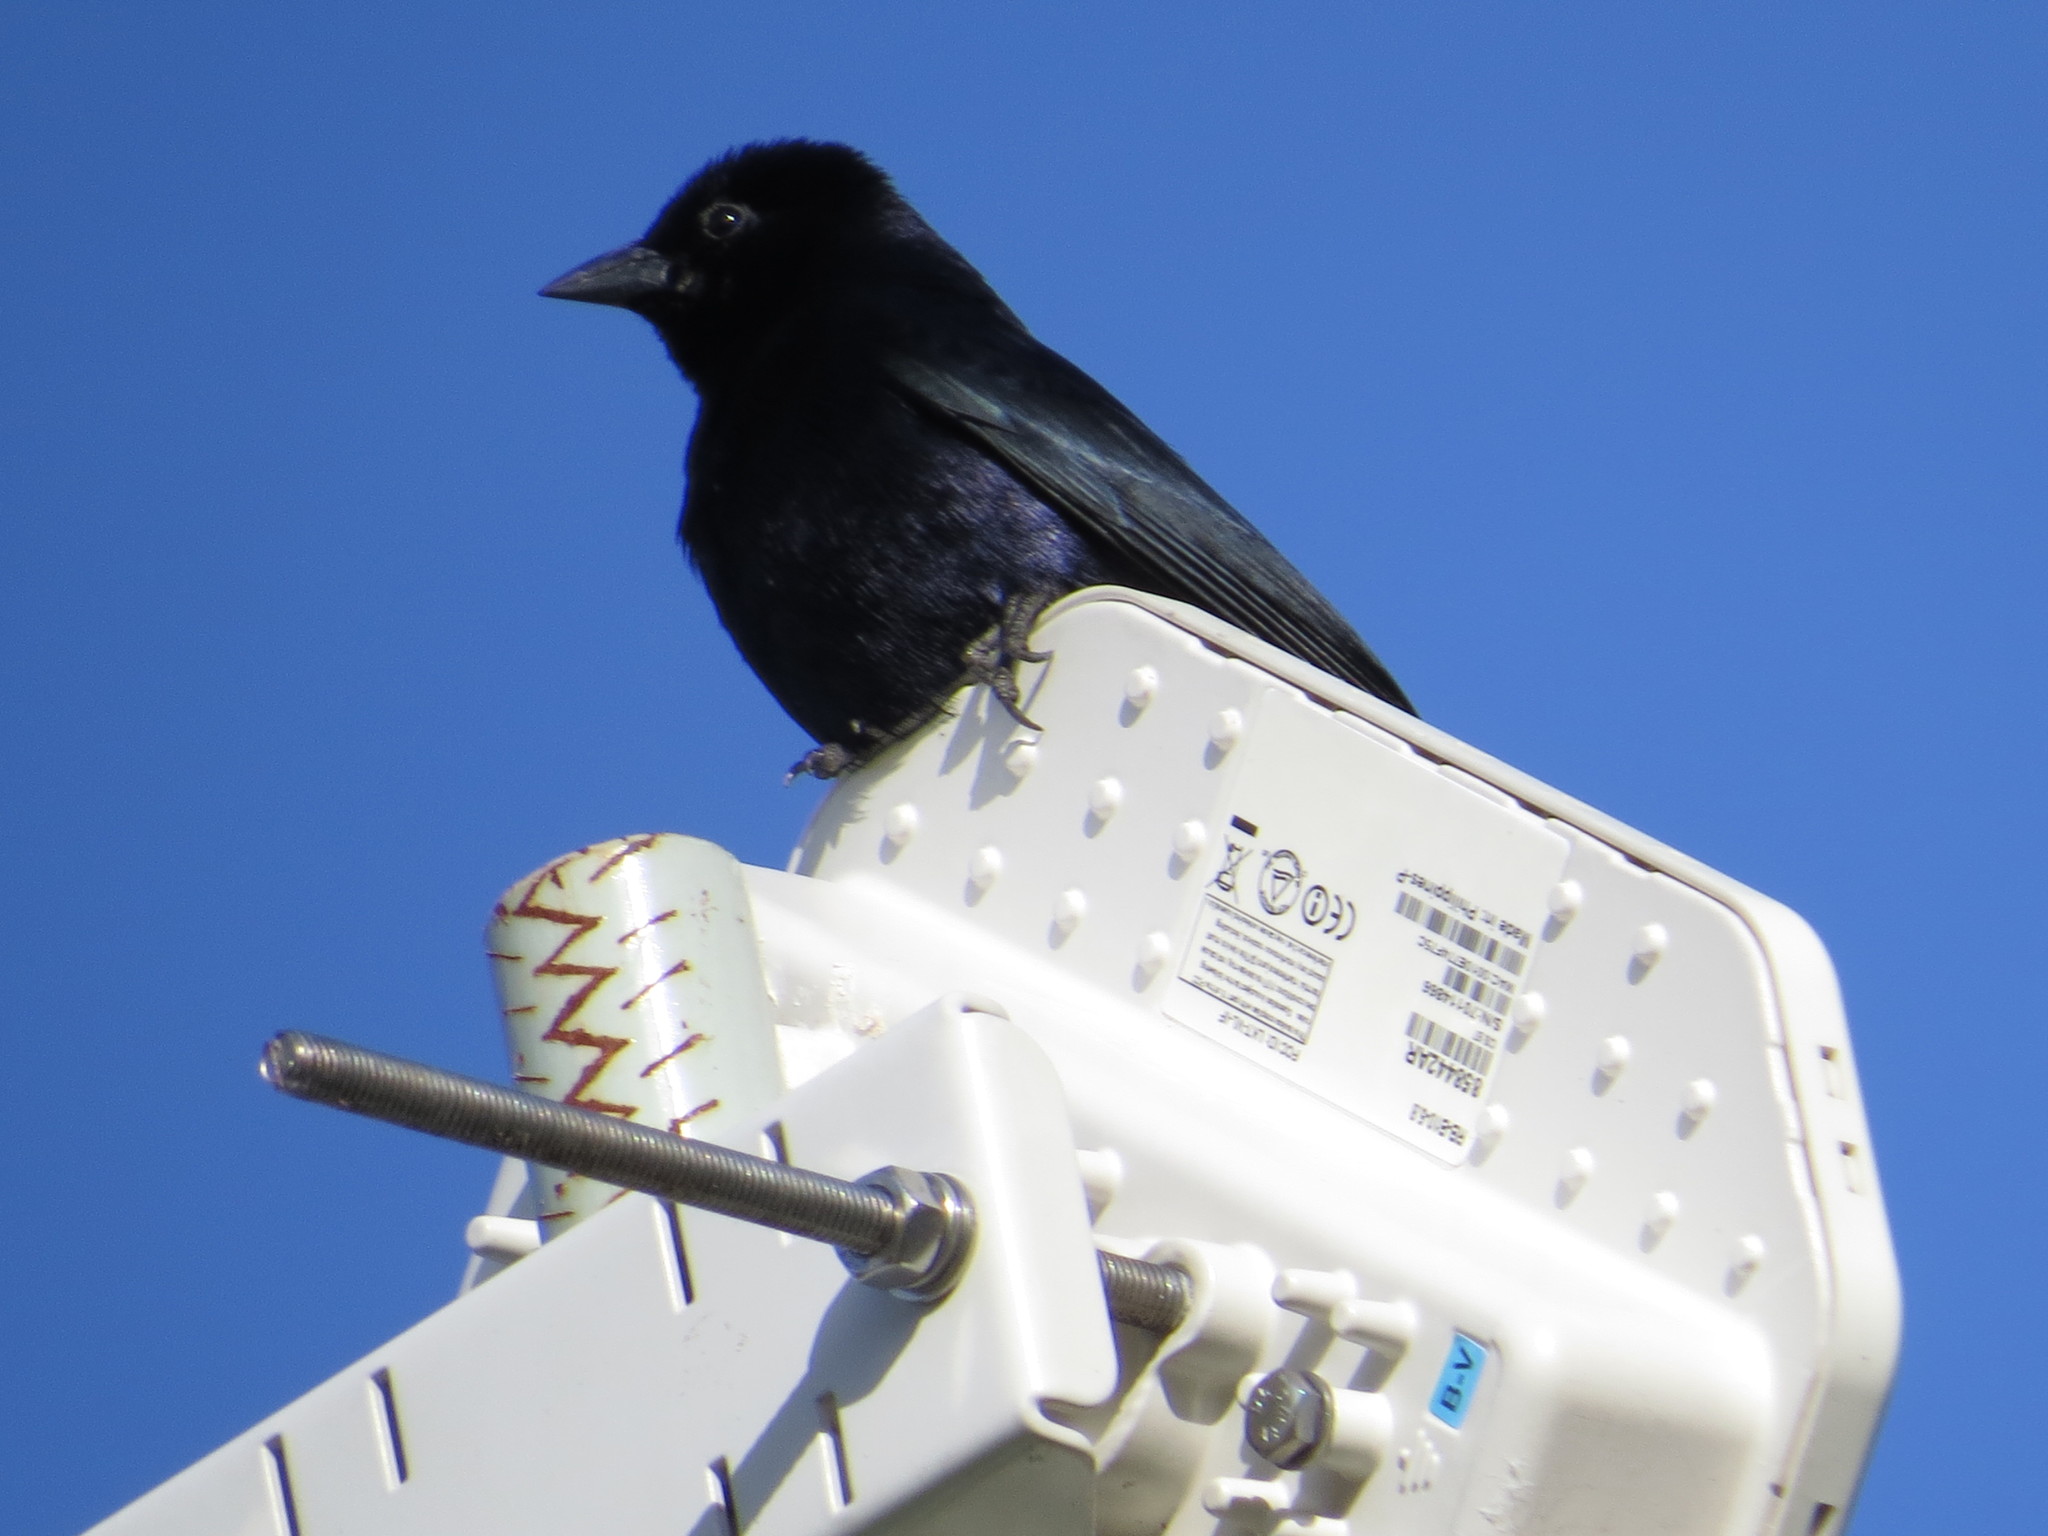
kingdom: Animalia
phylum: Chordata
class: Aves
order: Passeriformes
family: Icteridae
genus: Molothrus
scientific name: Molothrus bonariensis
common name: Shiny cowbird
